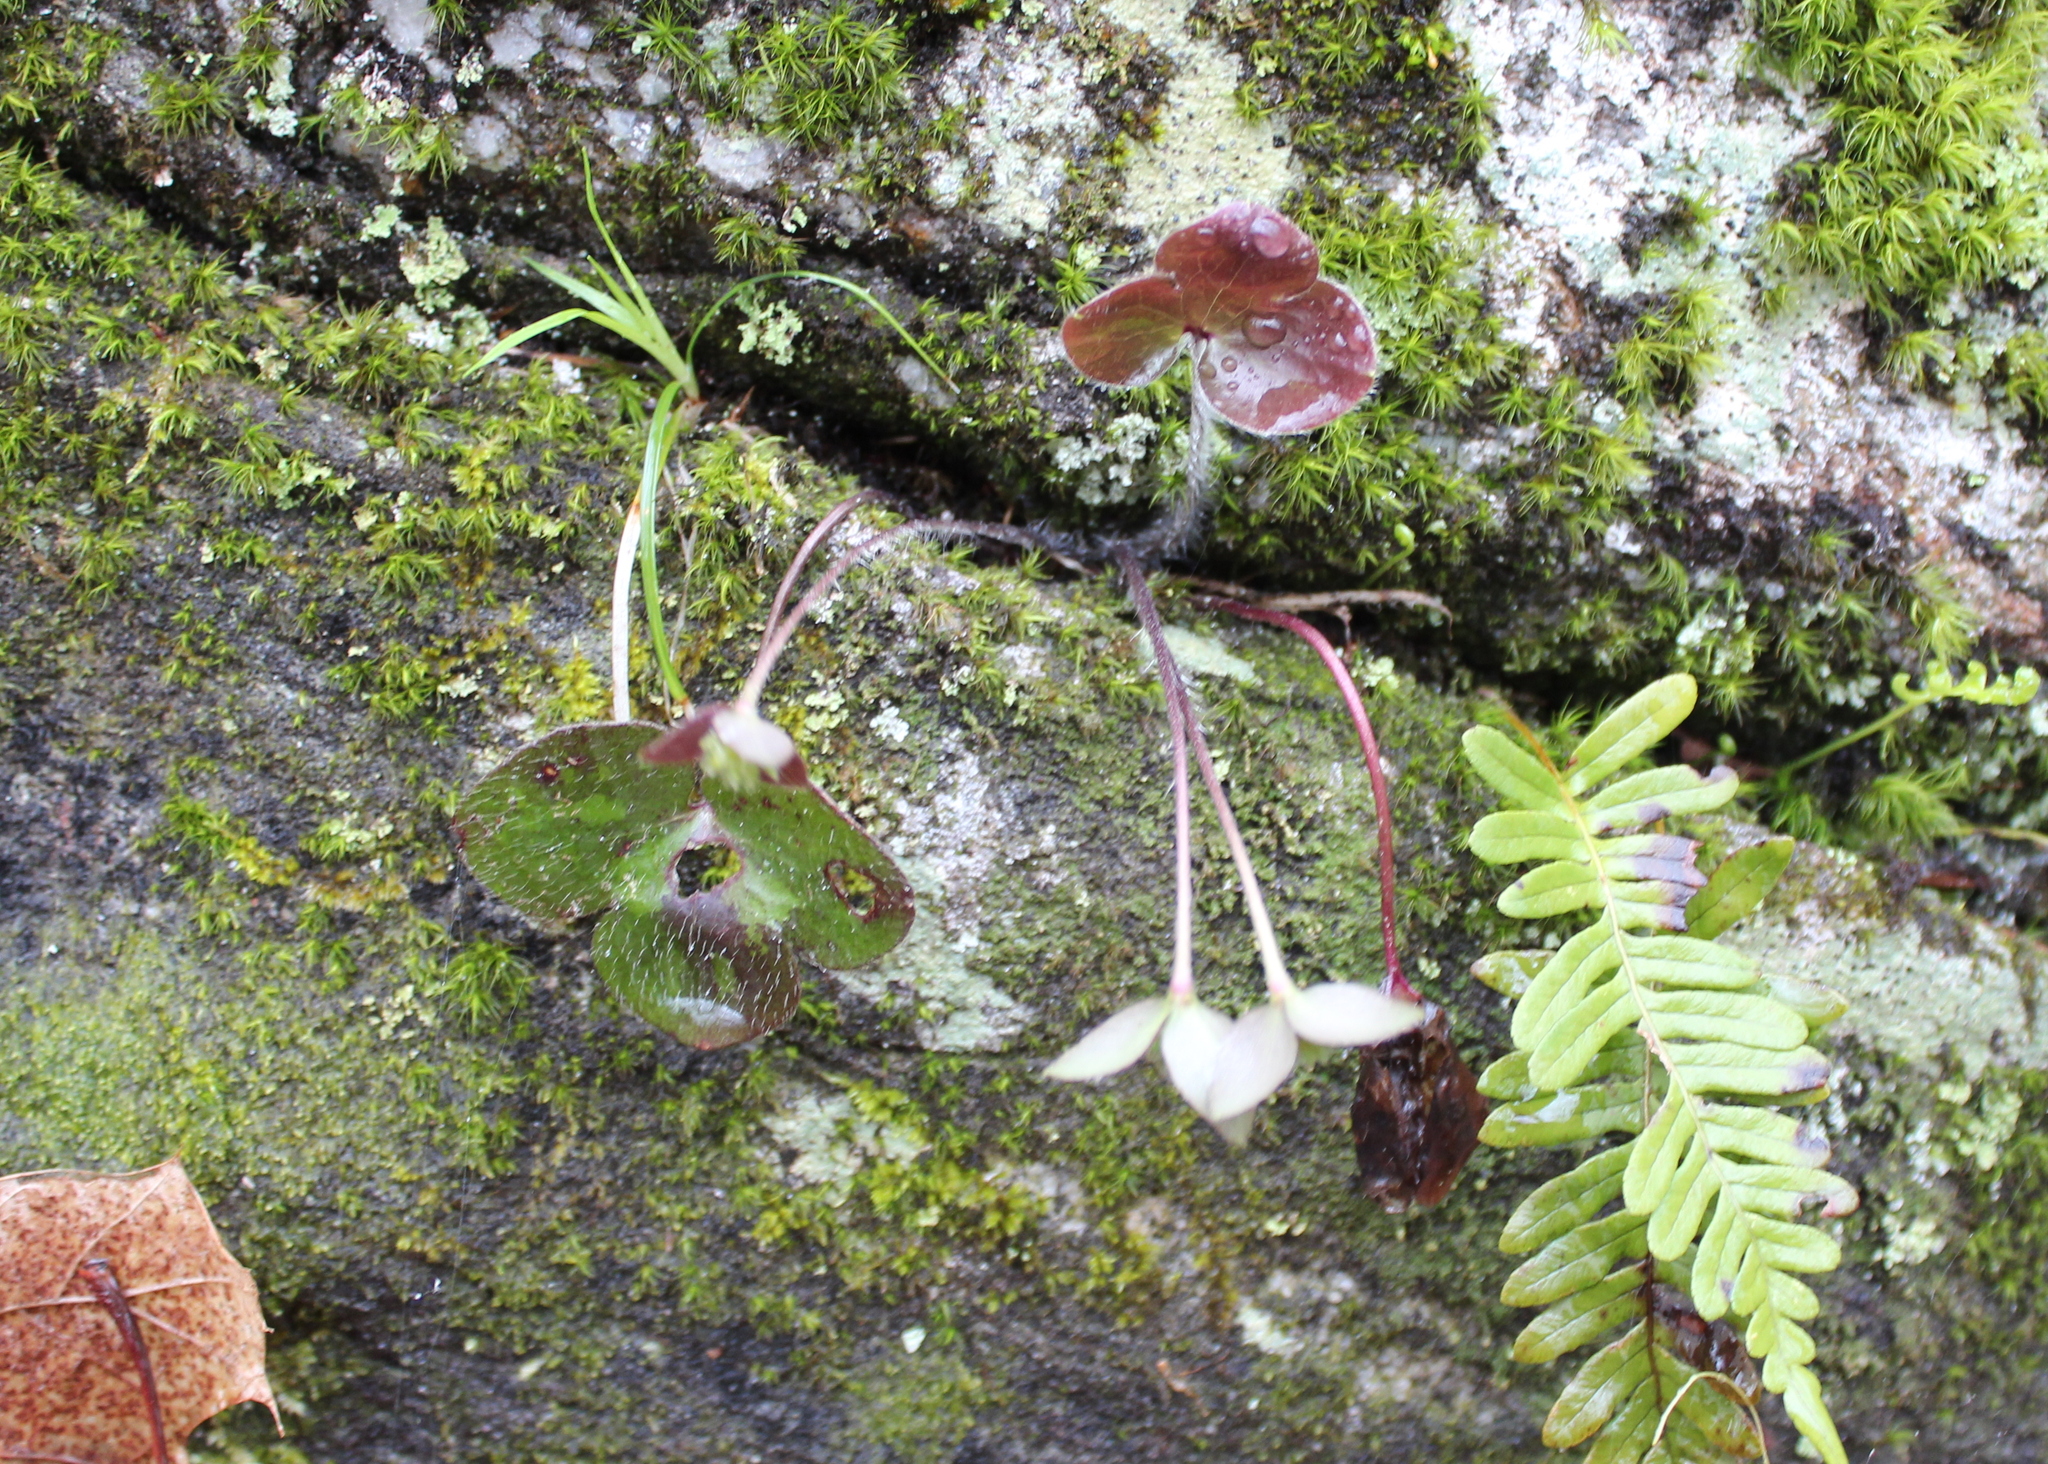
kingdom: Plantae
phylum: Tracheophyta
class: Magnoliopsida
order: Ranunculales
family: Ranunculaceae
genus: Hepatica
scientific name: Hepatica americana
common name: American hepatica
